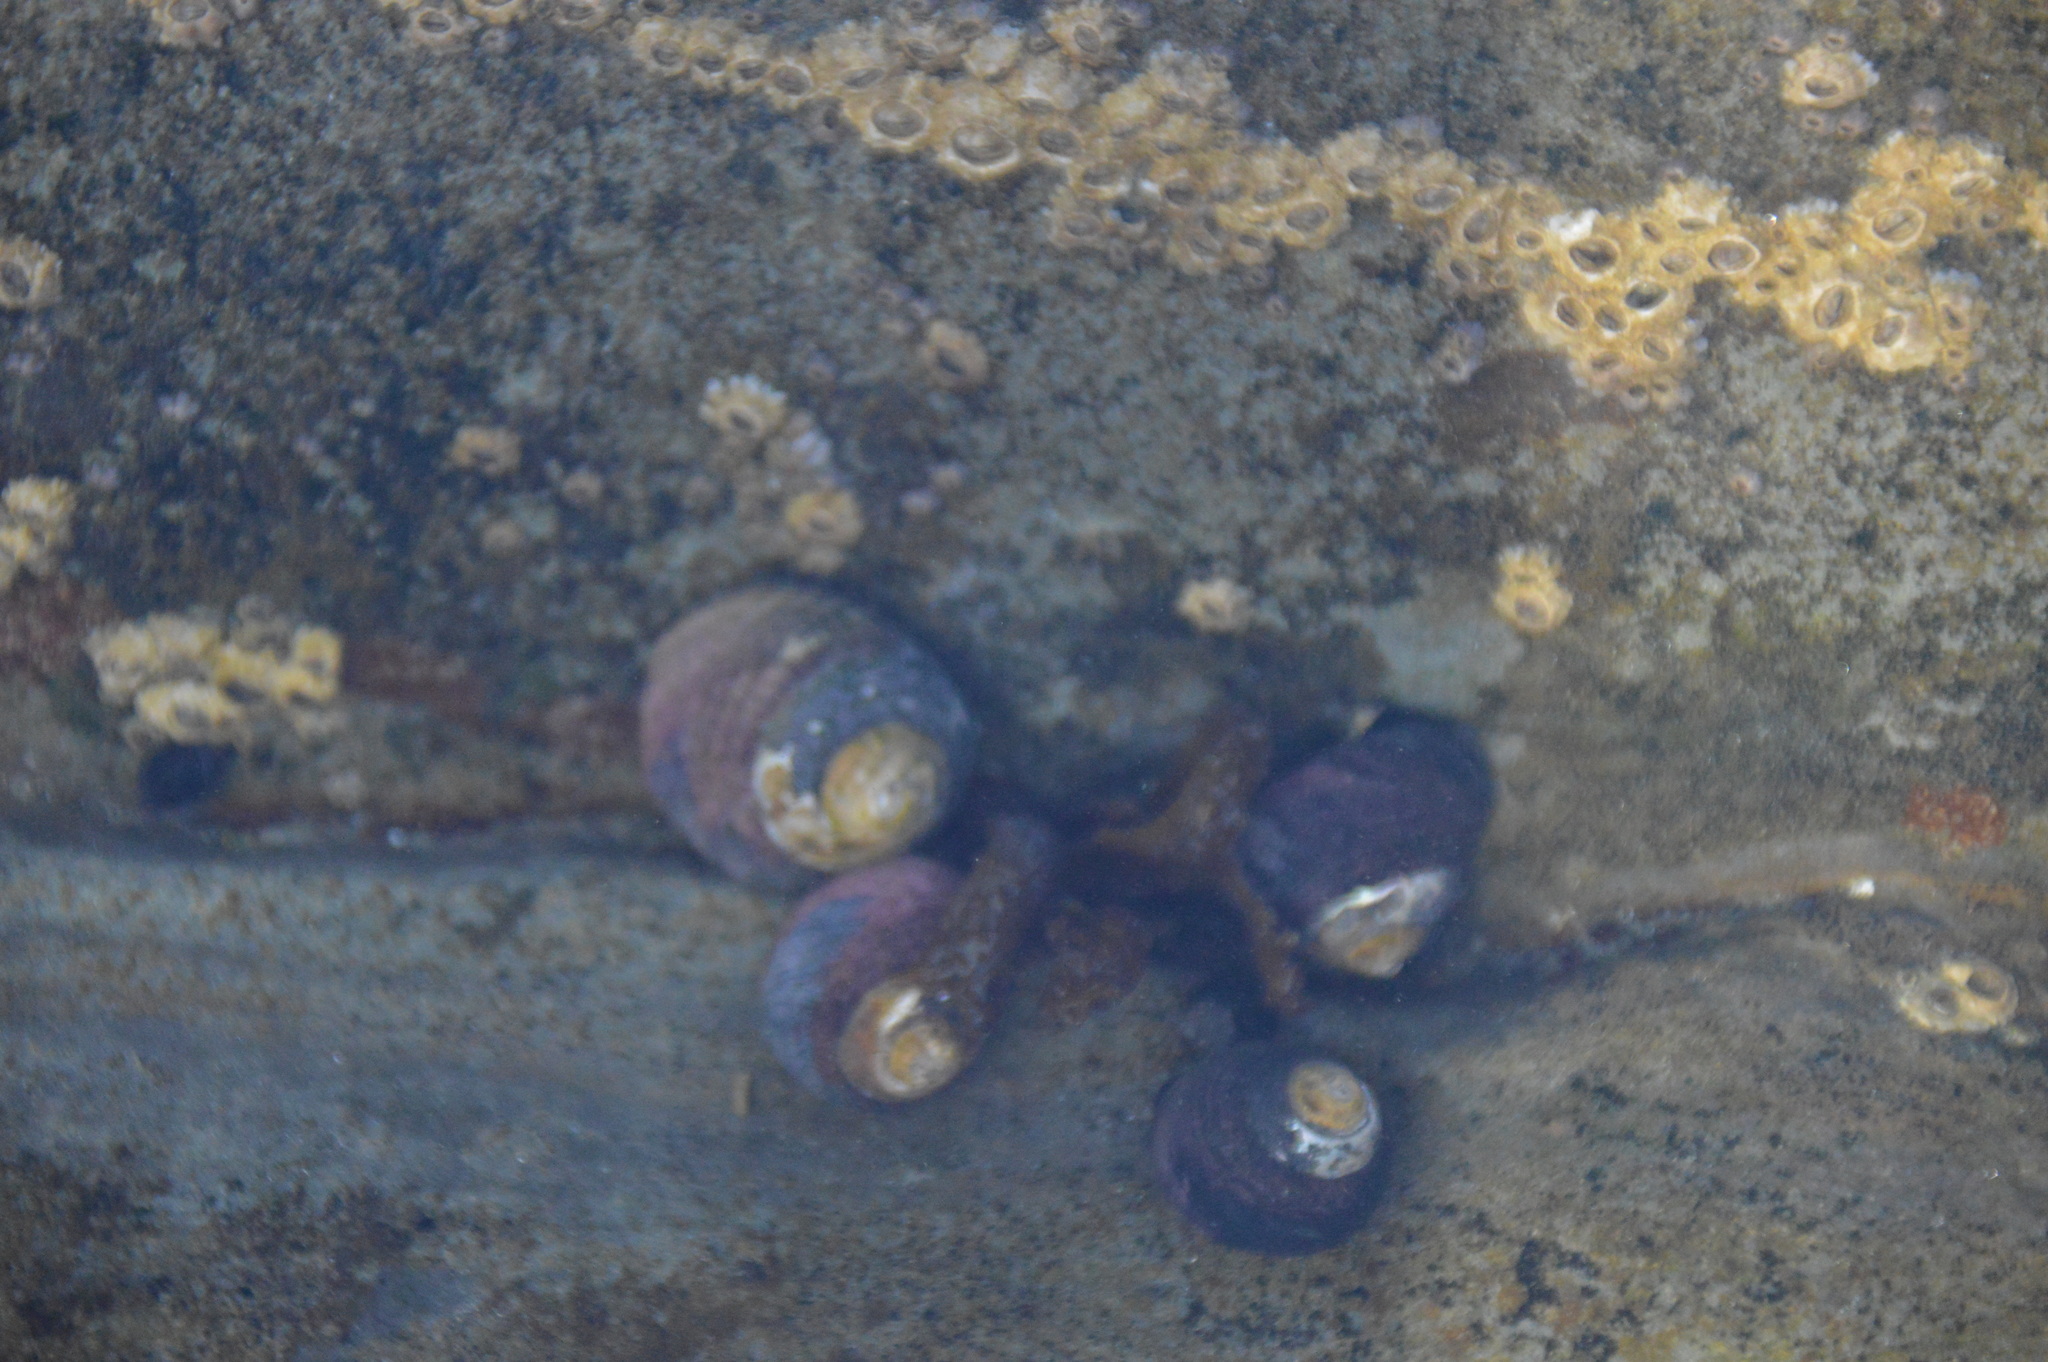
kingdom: Animalia
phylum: Mollusca
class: Gastropoda
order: Trochida
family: Tegulidae
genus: Tegula
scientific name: Tegula funebralis
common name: Black tegula
